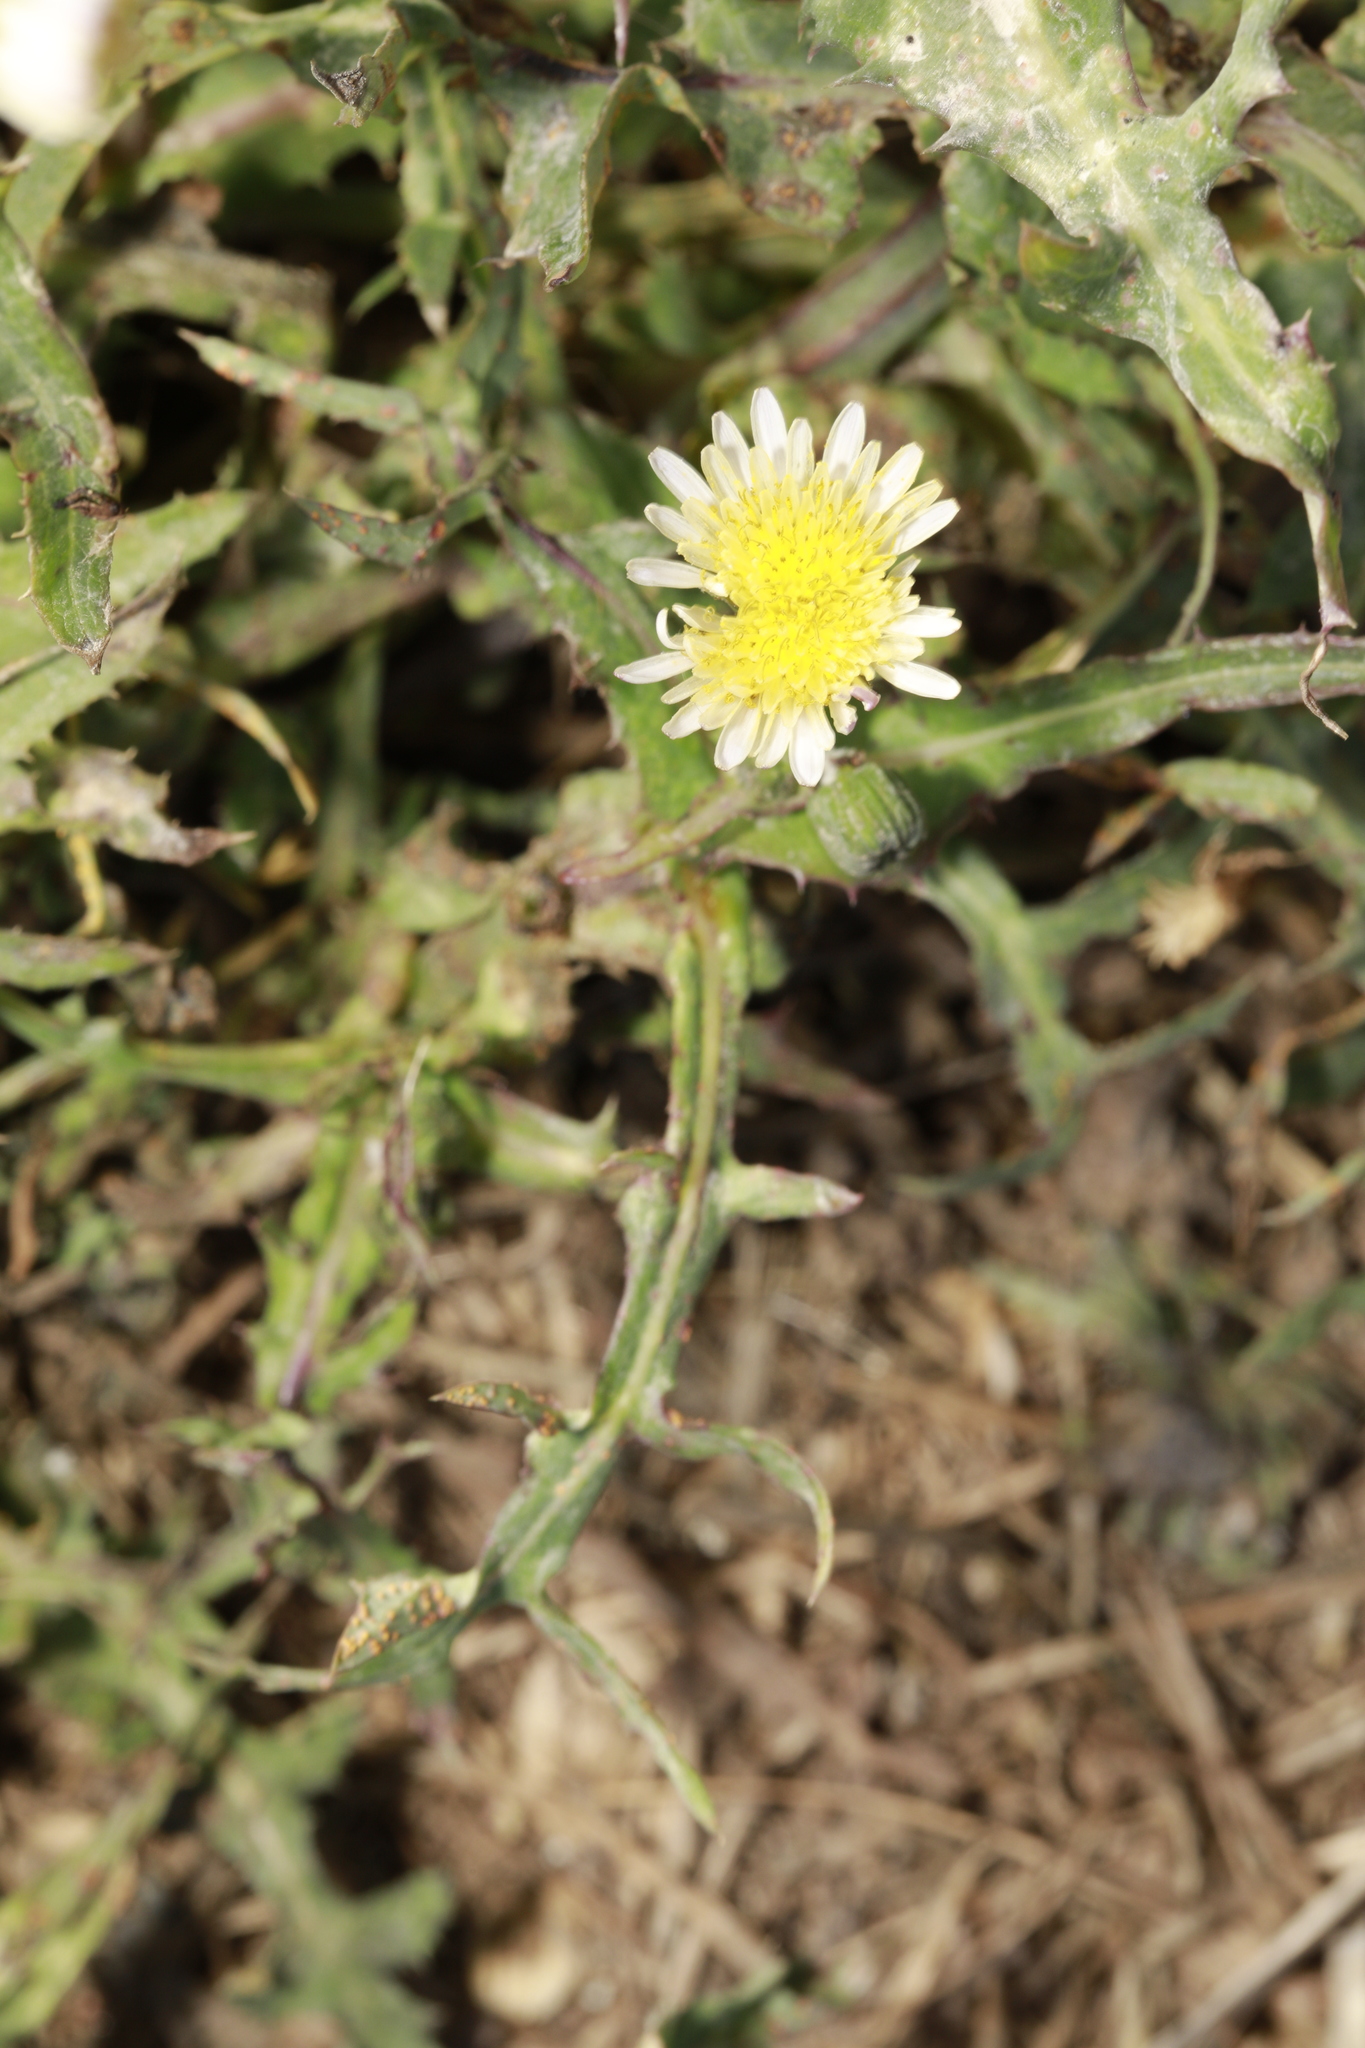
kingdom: Plantae
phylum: Tracheophyta
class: Magnoliopsida
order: Asterales
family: Asteraceae
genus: Sonchus
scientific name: Sonchus oleraceus
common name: Common sowthistle
